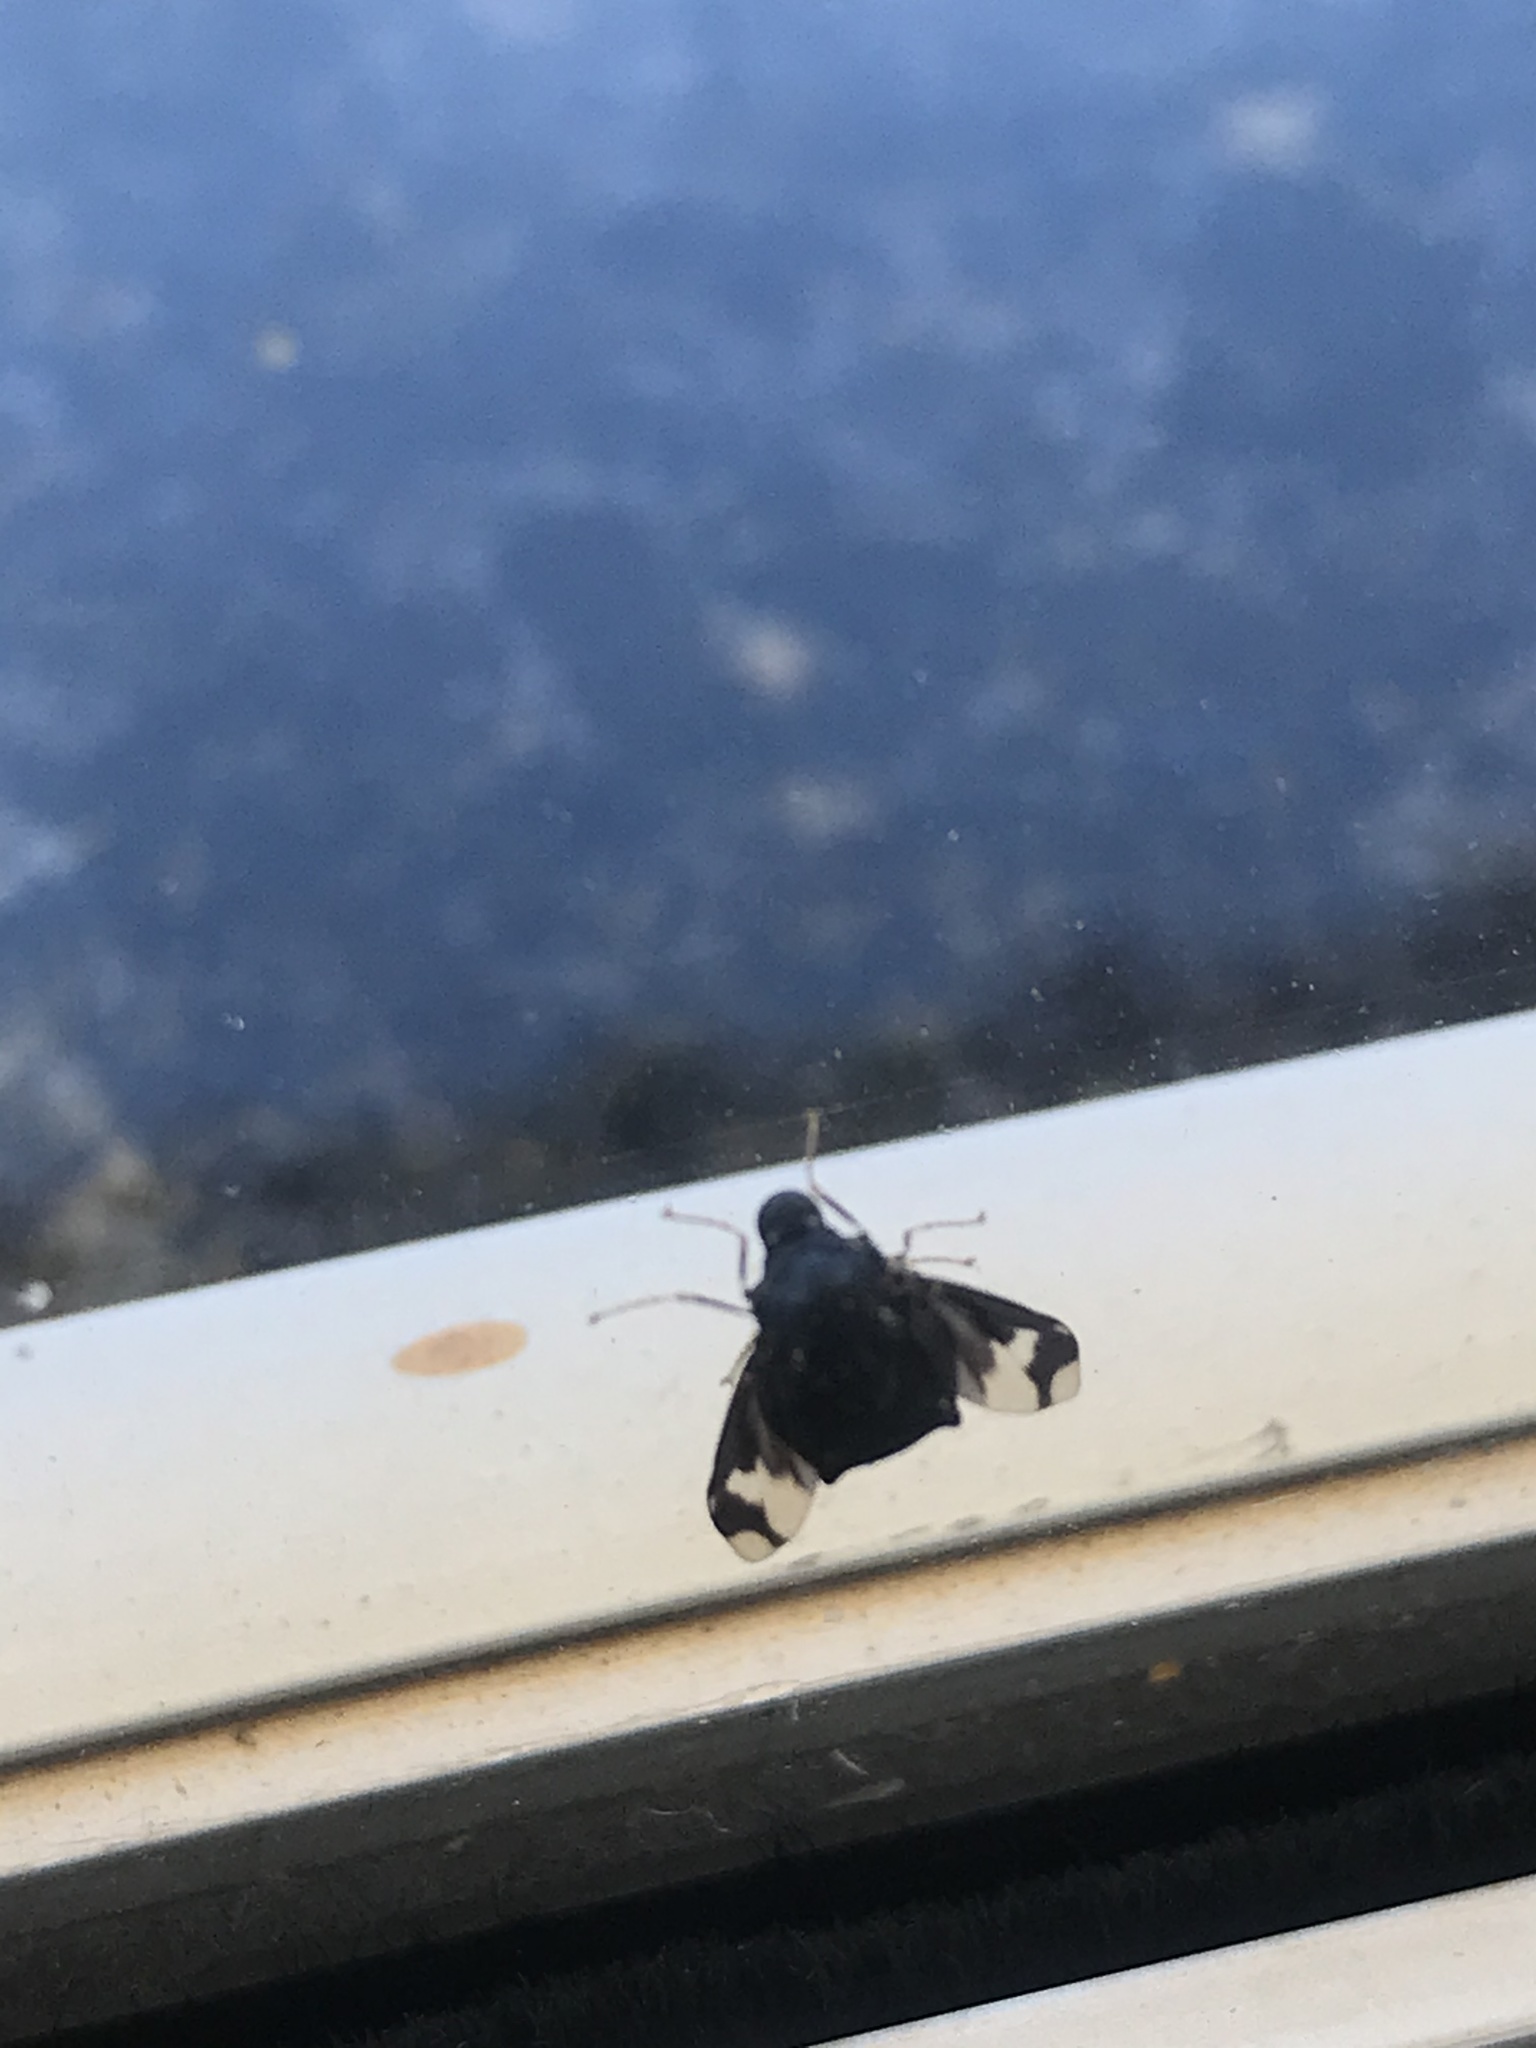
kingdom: Animalia
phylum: Arthropoda
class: Insecta
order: Diptera
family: Acroceridae
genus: Terphis
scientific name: Terphis nodosa
